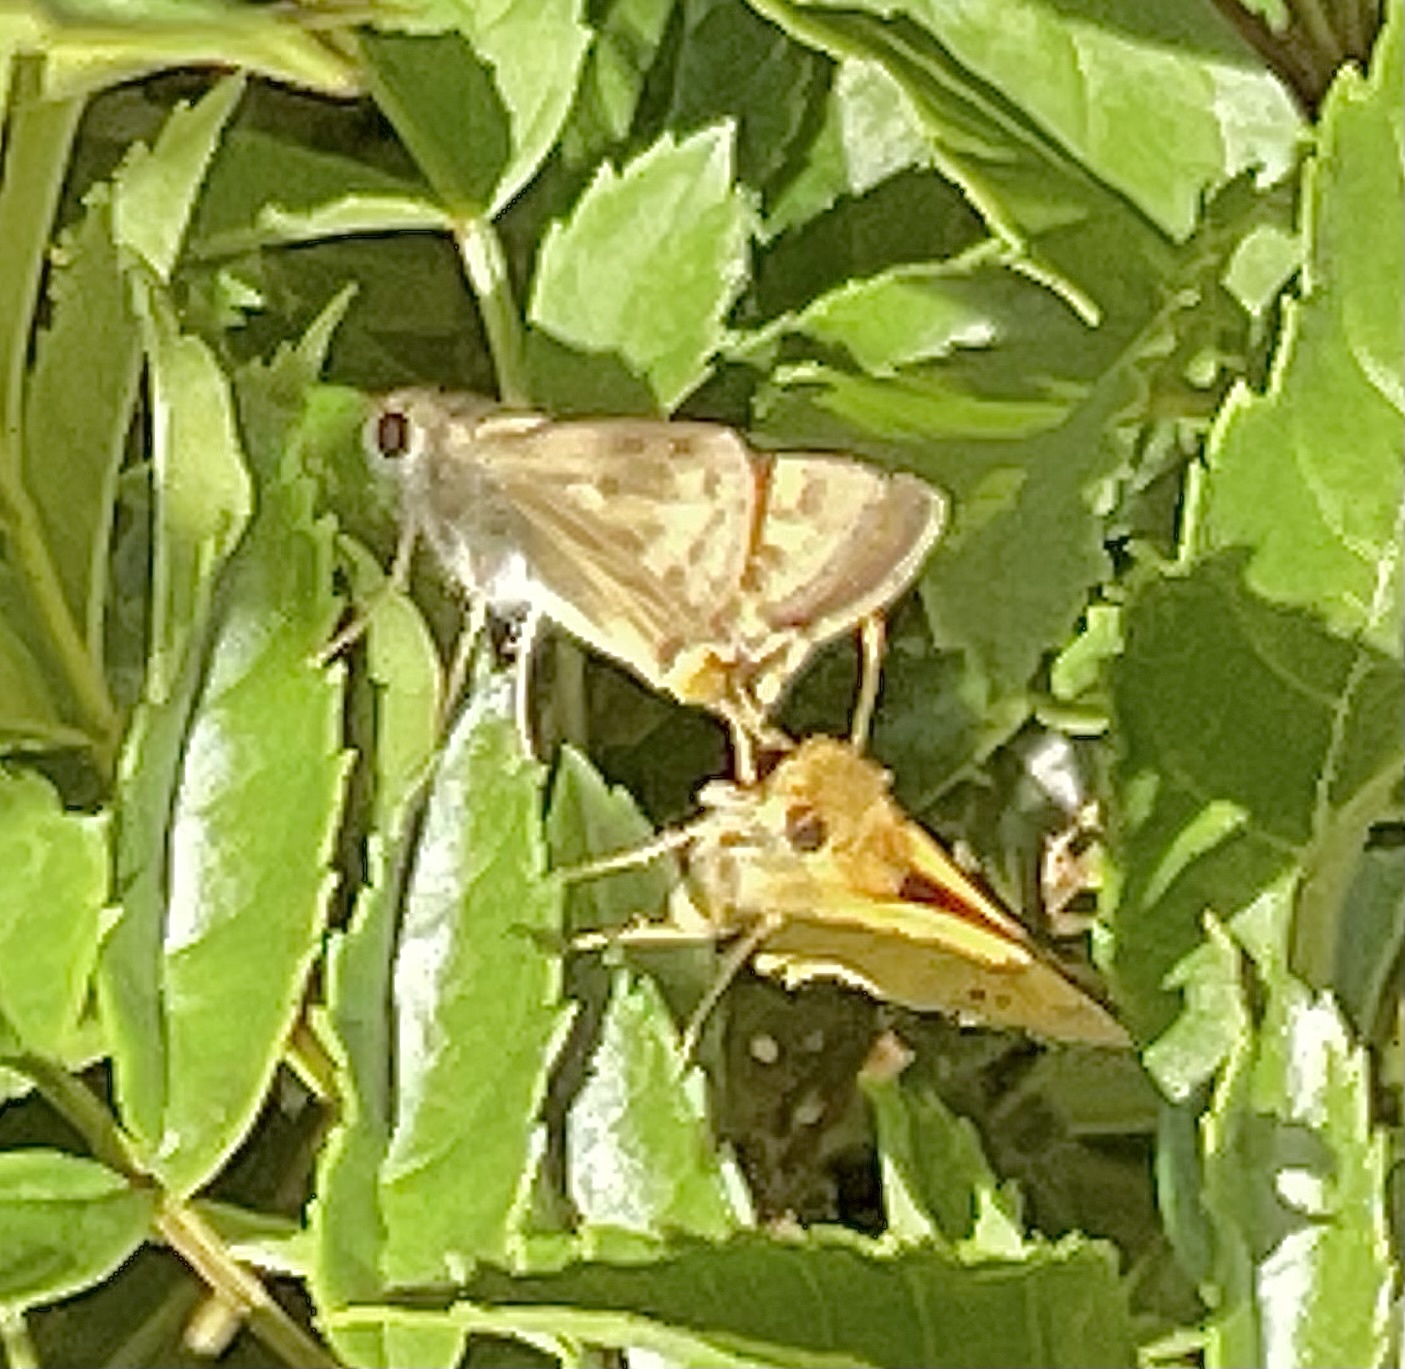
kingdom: Animalia
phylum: Arthropoda
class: Insecta
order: Lepidoptera
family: Hesperiidae
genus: Hylephila
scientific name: Hylephila phyleus
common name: Fiery skipper
